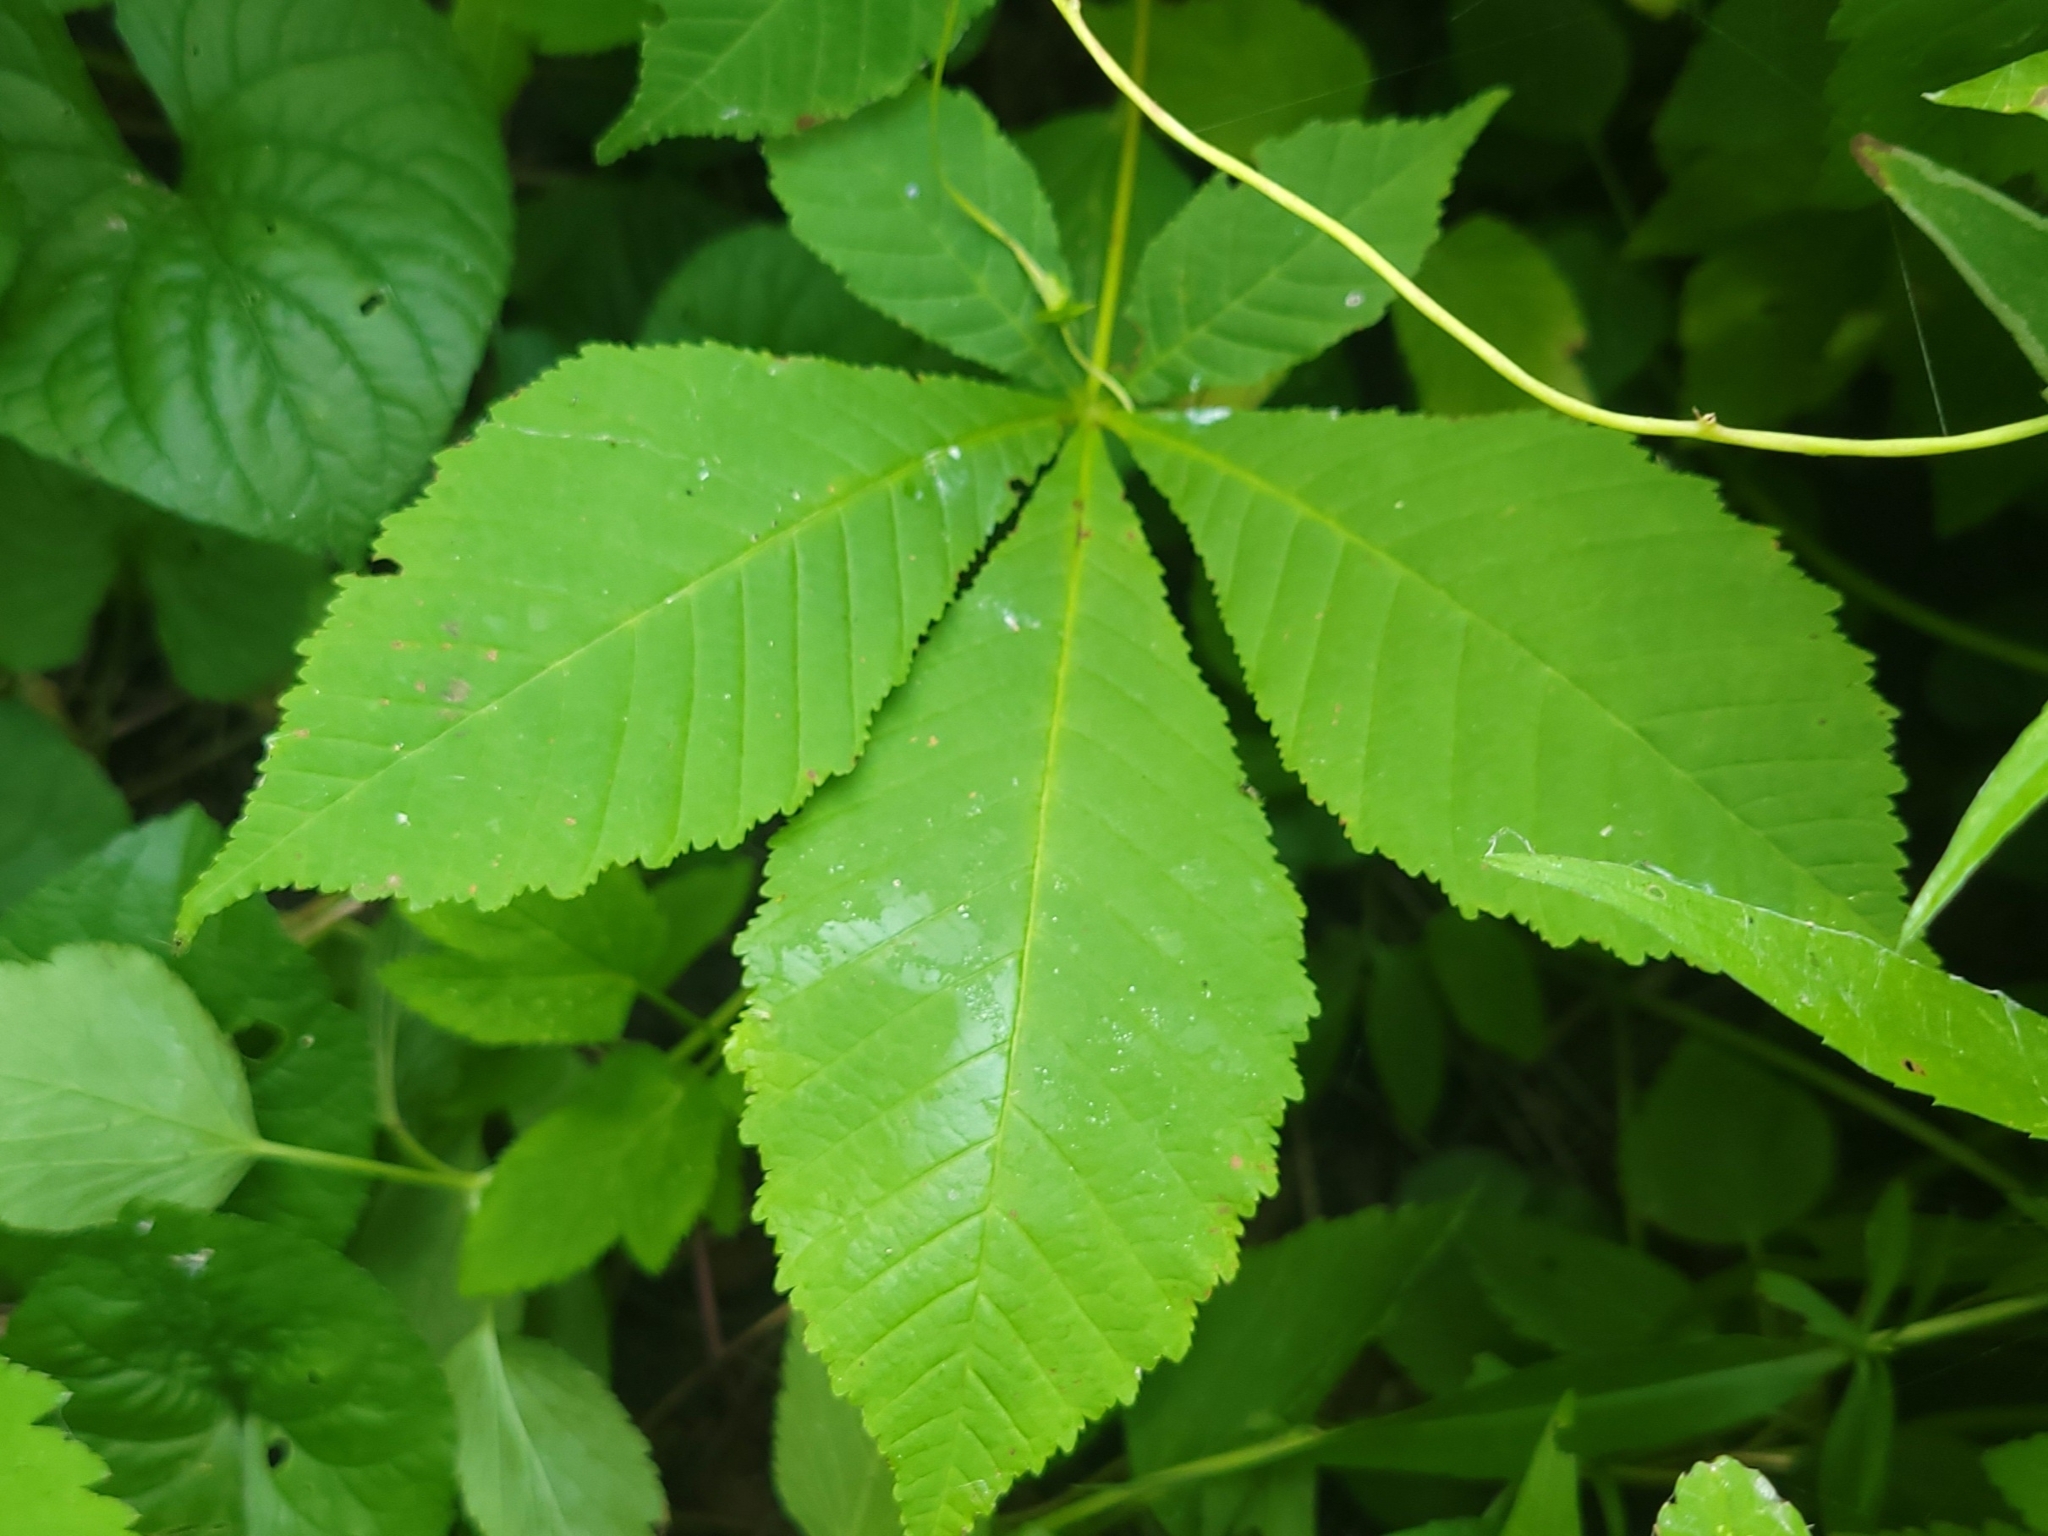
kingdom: Plantae
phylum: Tracheophyta
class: Magnoliopsida
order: Sapindales
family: Sapindaceae
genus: Aesculus
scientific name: Aesculus hippocastanum
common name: Horse-chestnut
